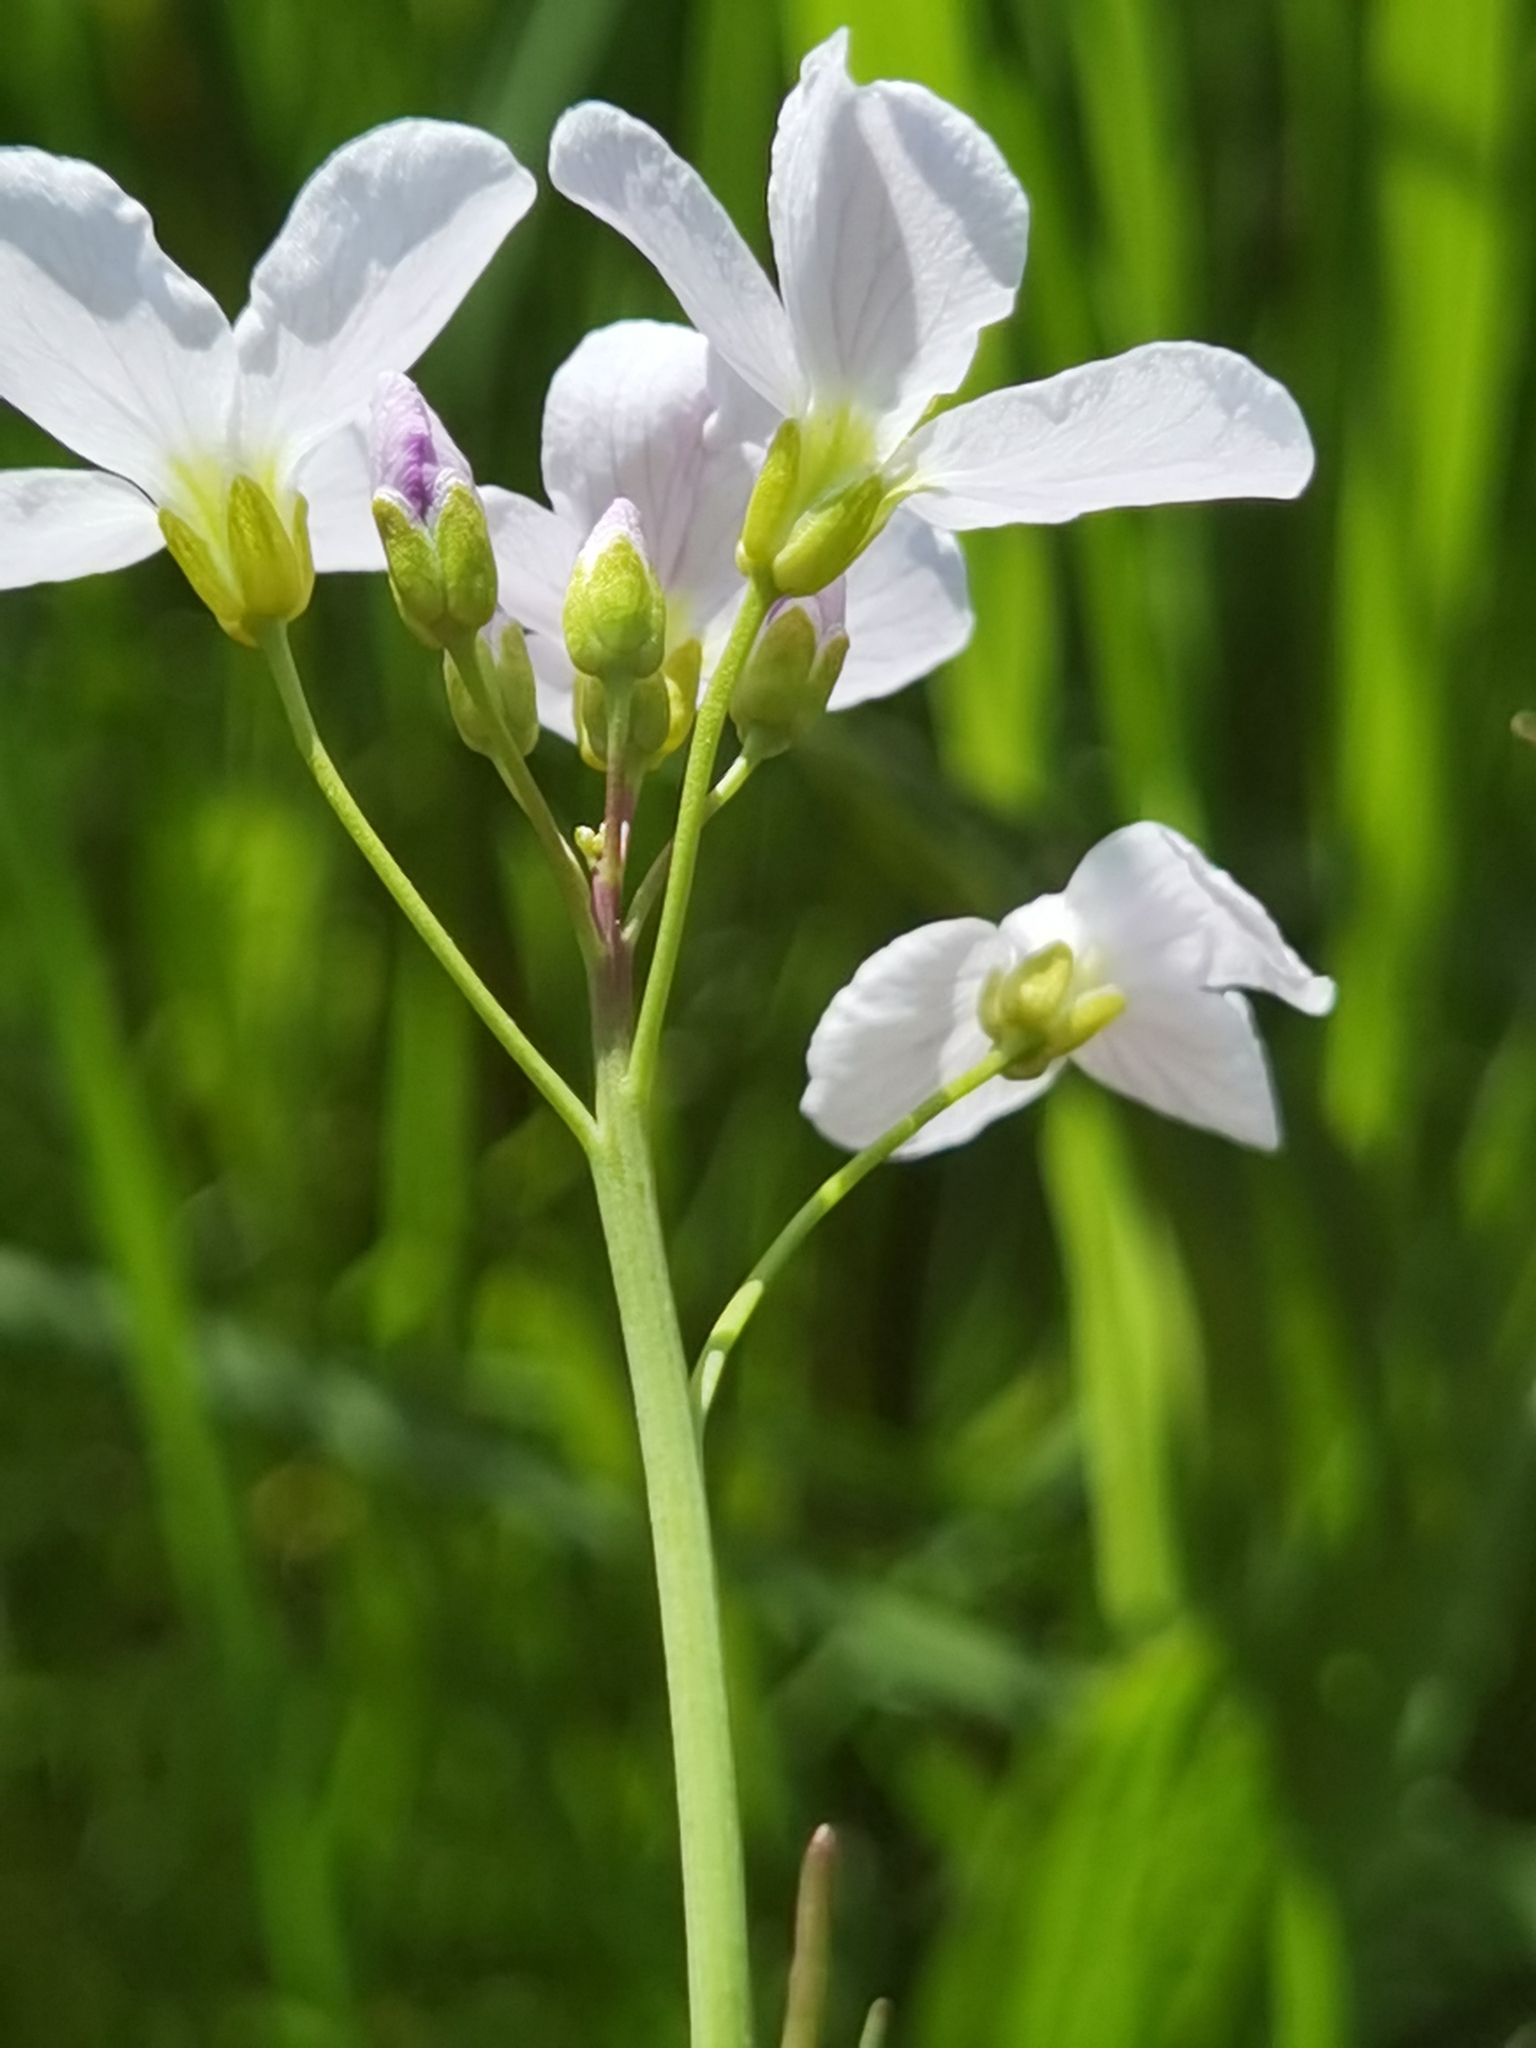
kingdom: Plantae
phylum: Tracheophyta
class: Magnoliopsida
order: Brassicales
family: Brassicaceae
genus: Cardamine
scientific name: Cardamine pratensis
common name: Cuckoo flower
